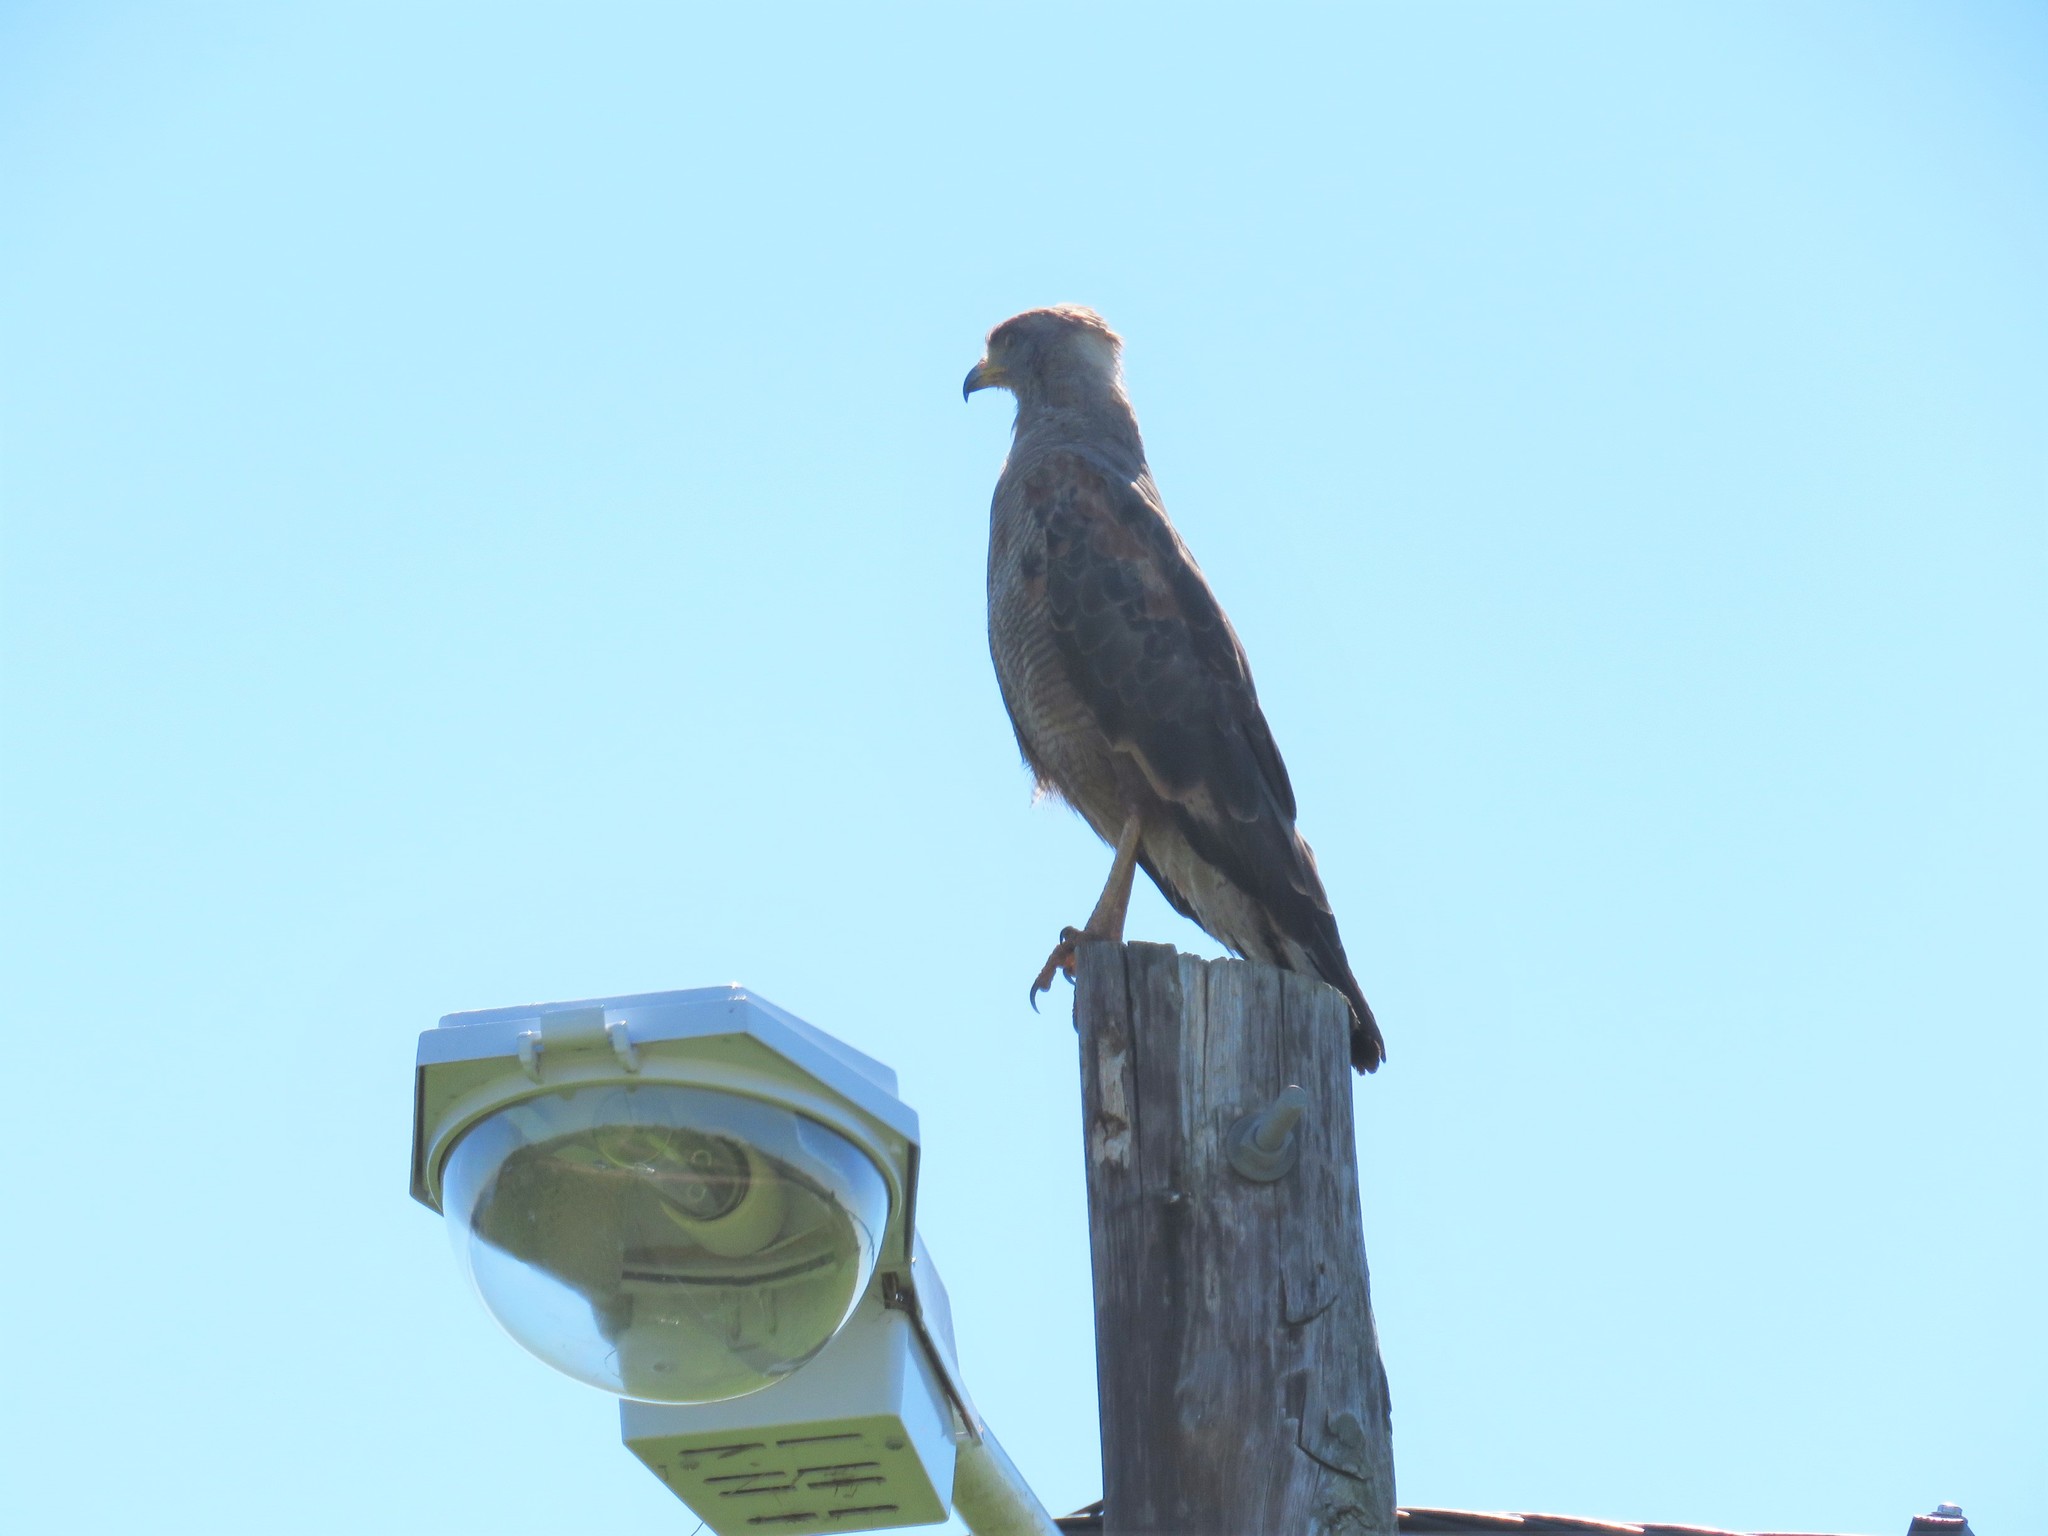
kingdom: Animalia
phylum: Chordata
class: Aves
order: Accipitriformes
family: Accipitridae
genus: Buteogallus
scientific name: Buteogallus meridionalis
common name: Savanna hawk
